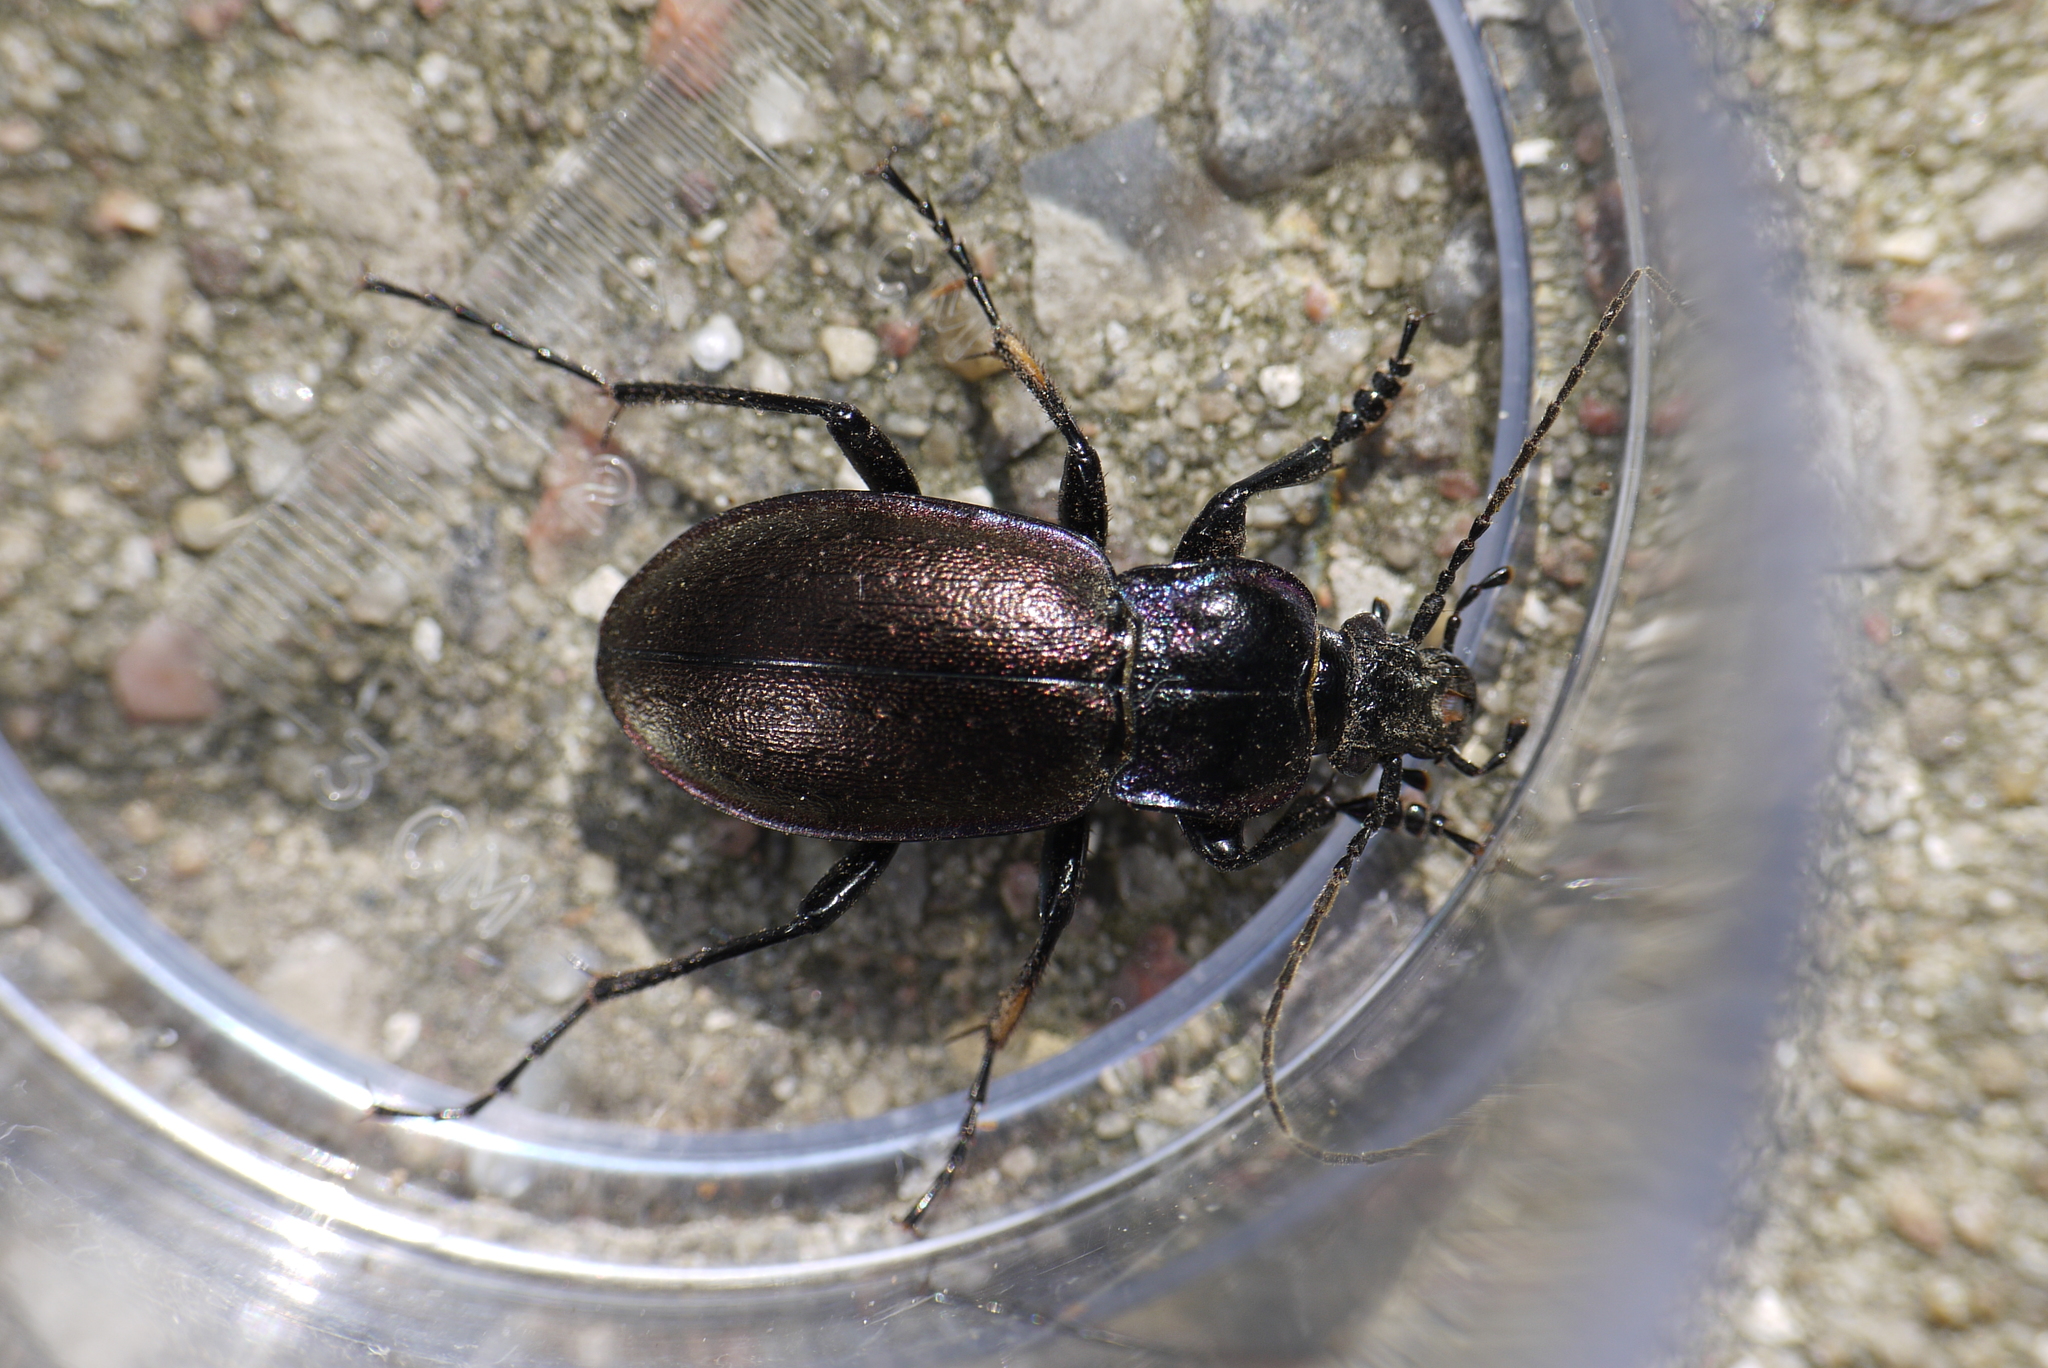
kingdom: Animalia
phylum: Arthropoda
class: Insecta
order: Coleoptera
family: Carabidae
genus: Carabus
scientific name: Carabus nemoralis
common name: European ground beetle
